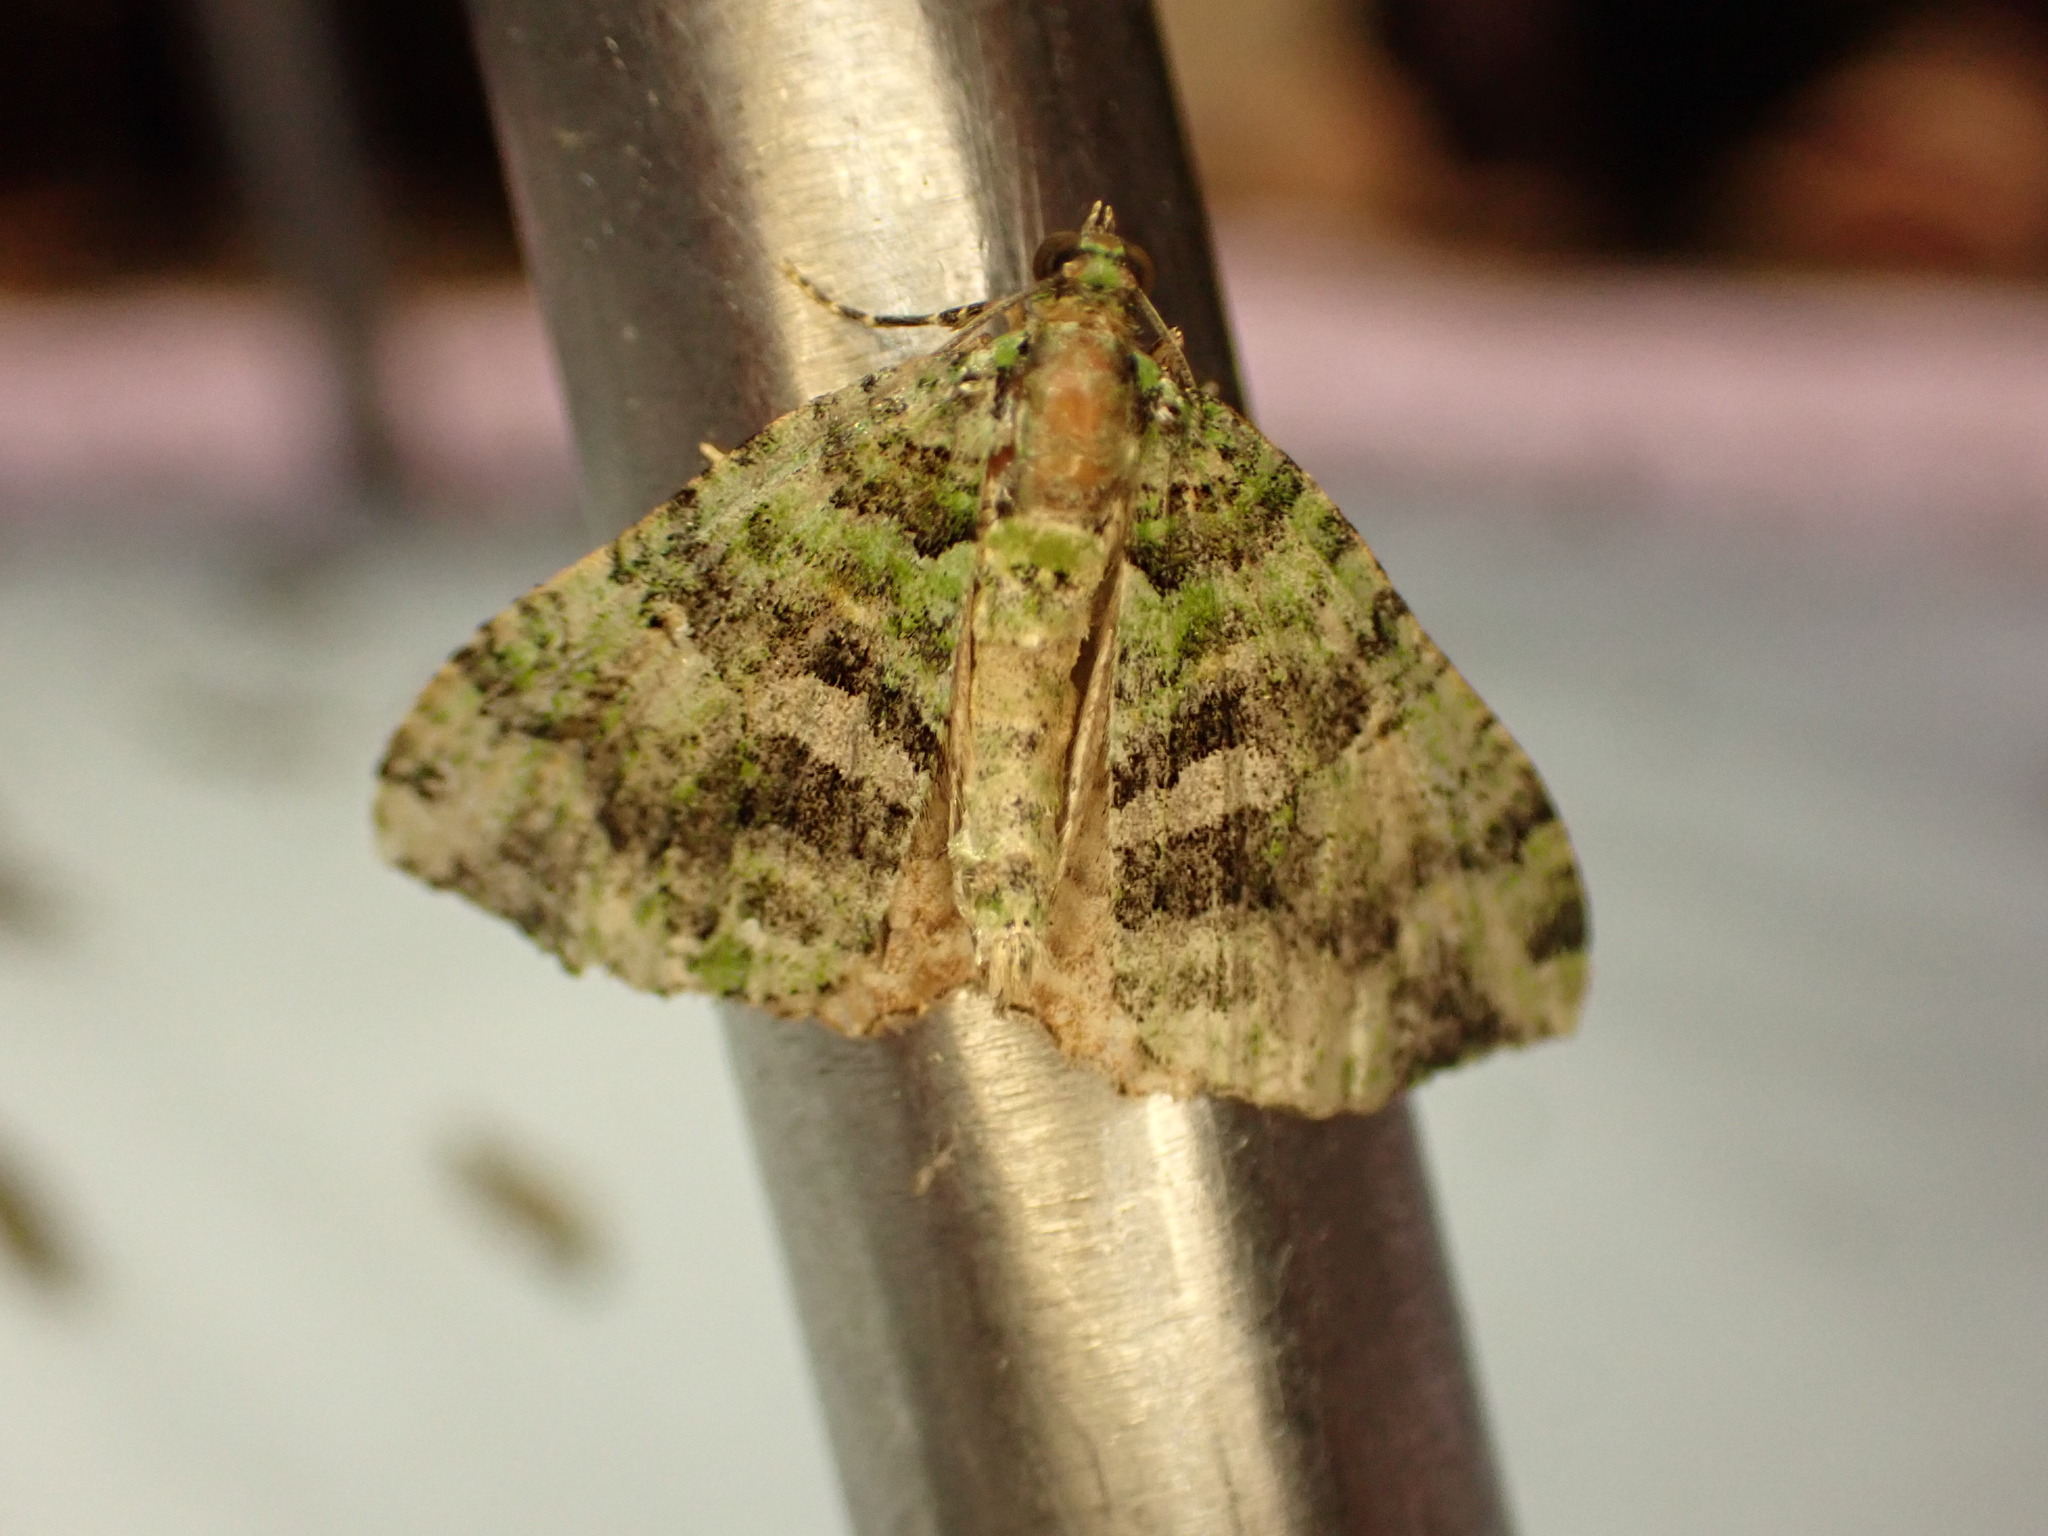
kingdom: Animalia
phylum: Arthropoda
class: Insecta
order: Lepidoptera
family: Geometridae
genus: Austrocidaria
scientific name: Austrocidaria similata
